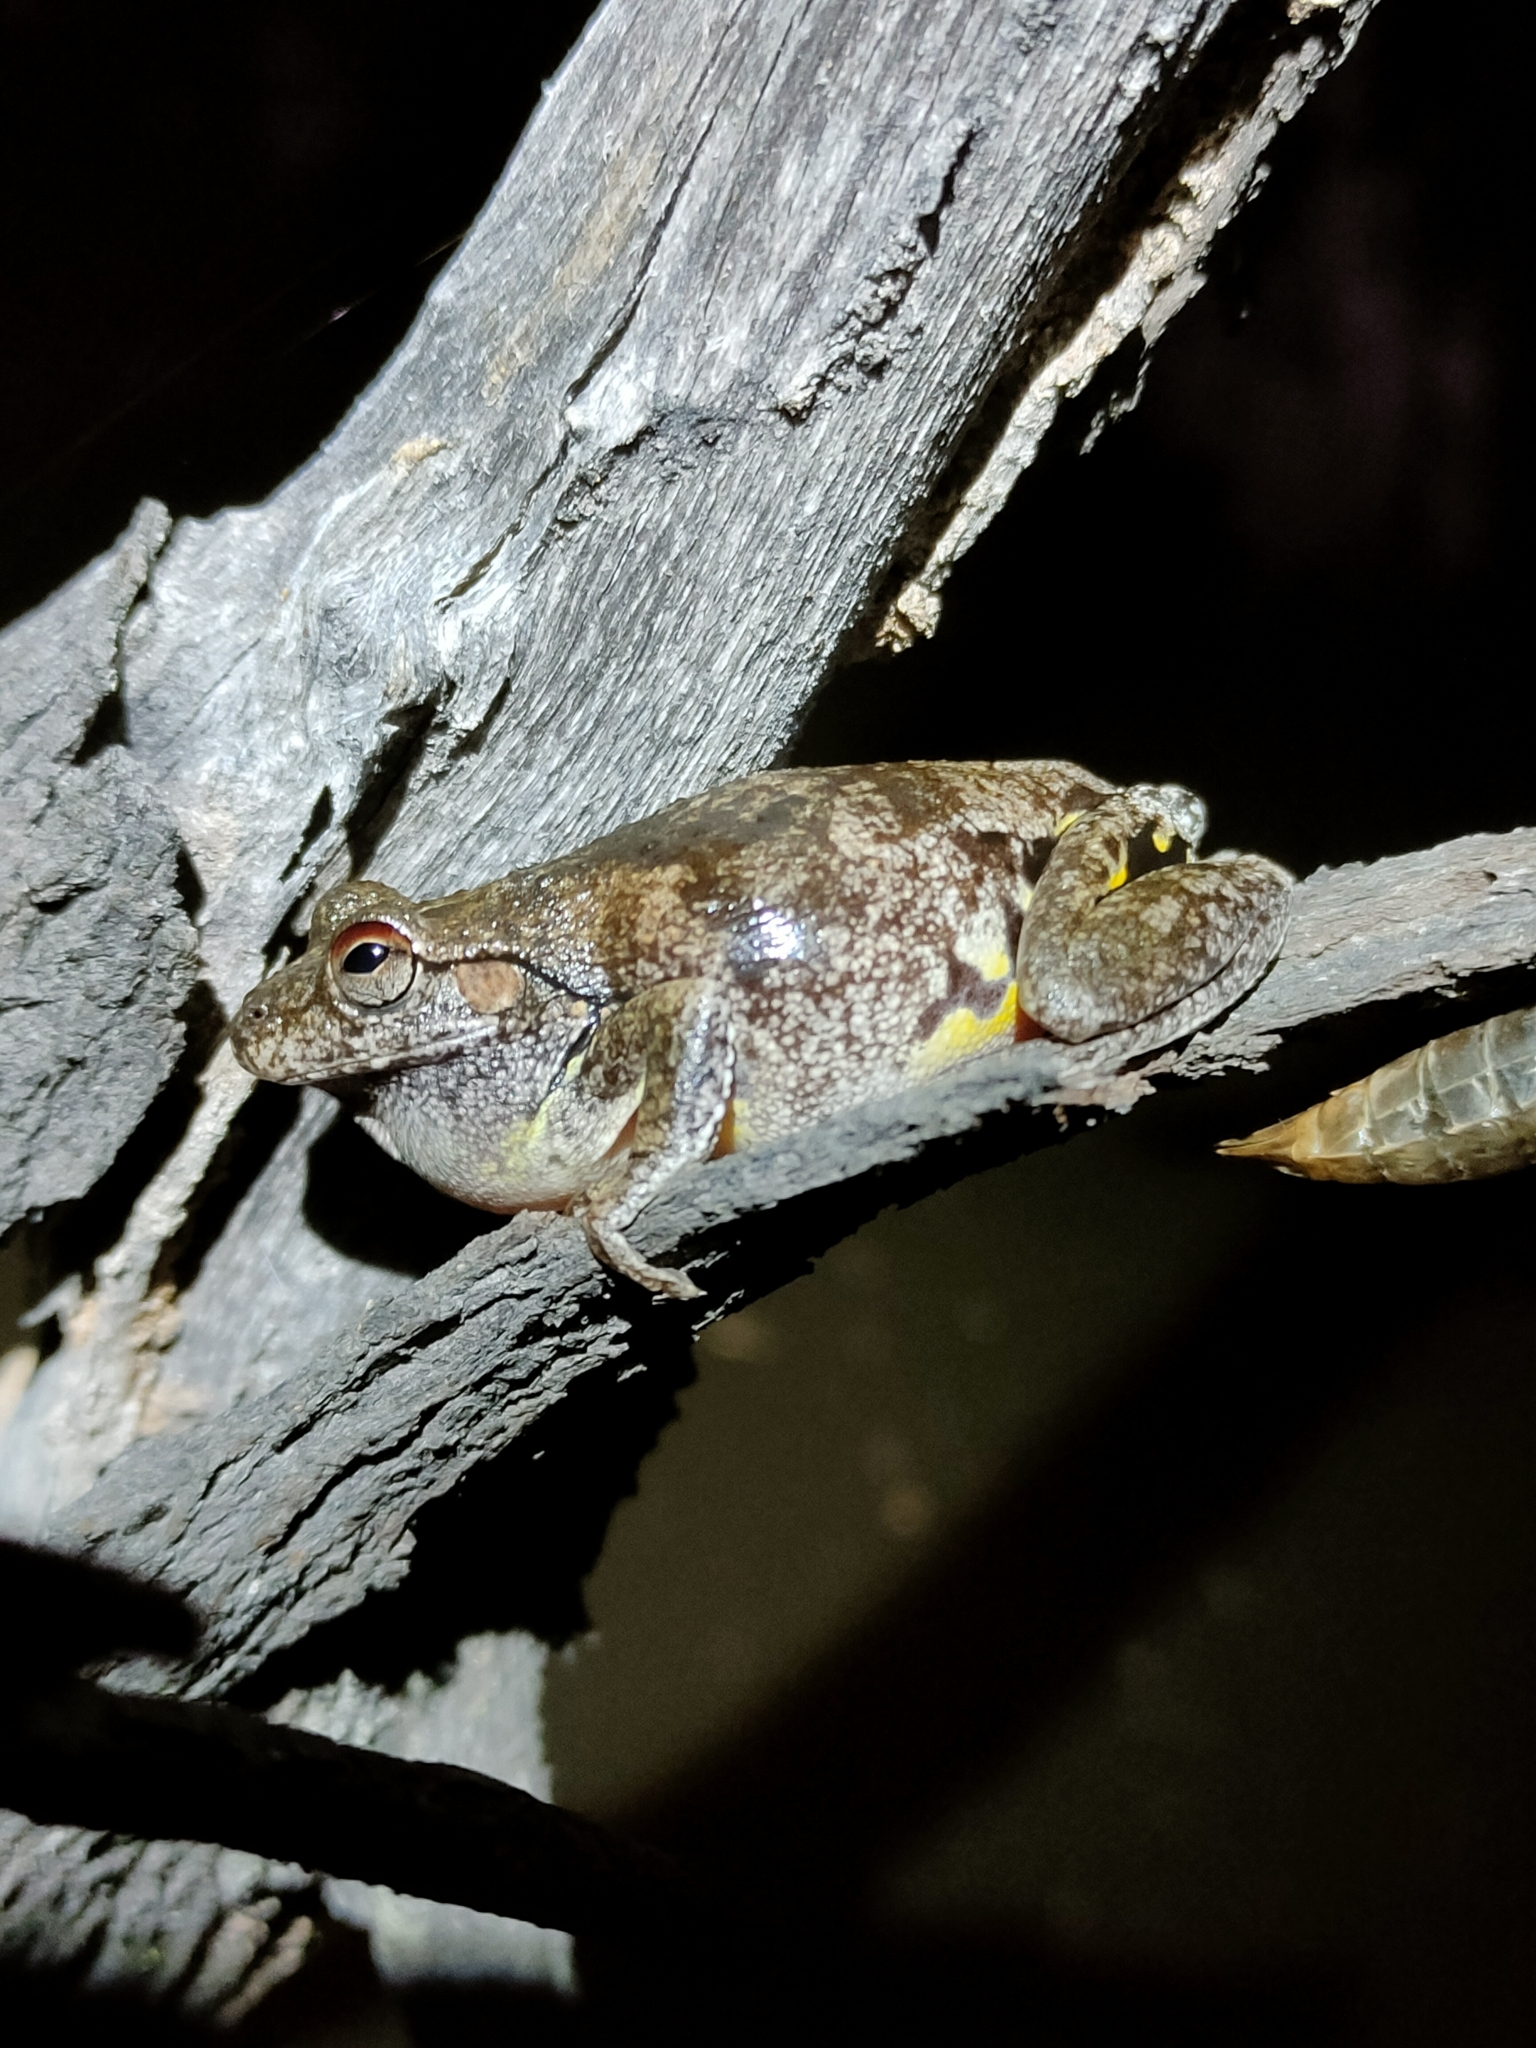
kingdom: Animalia
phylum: Chordata
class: Amphibia
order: Anura
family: Pelodryadidae
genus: Litoria
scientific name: Litoria rothii
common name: Roth’s tree frog
